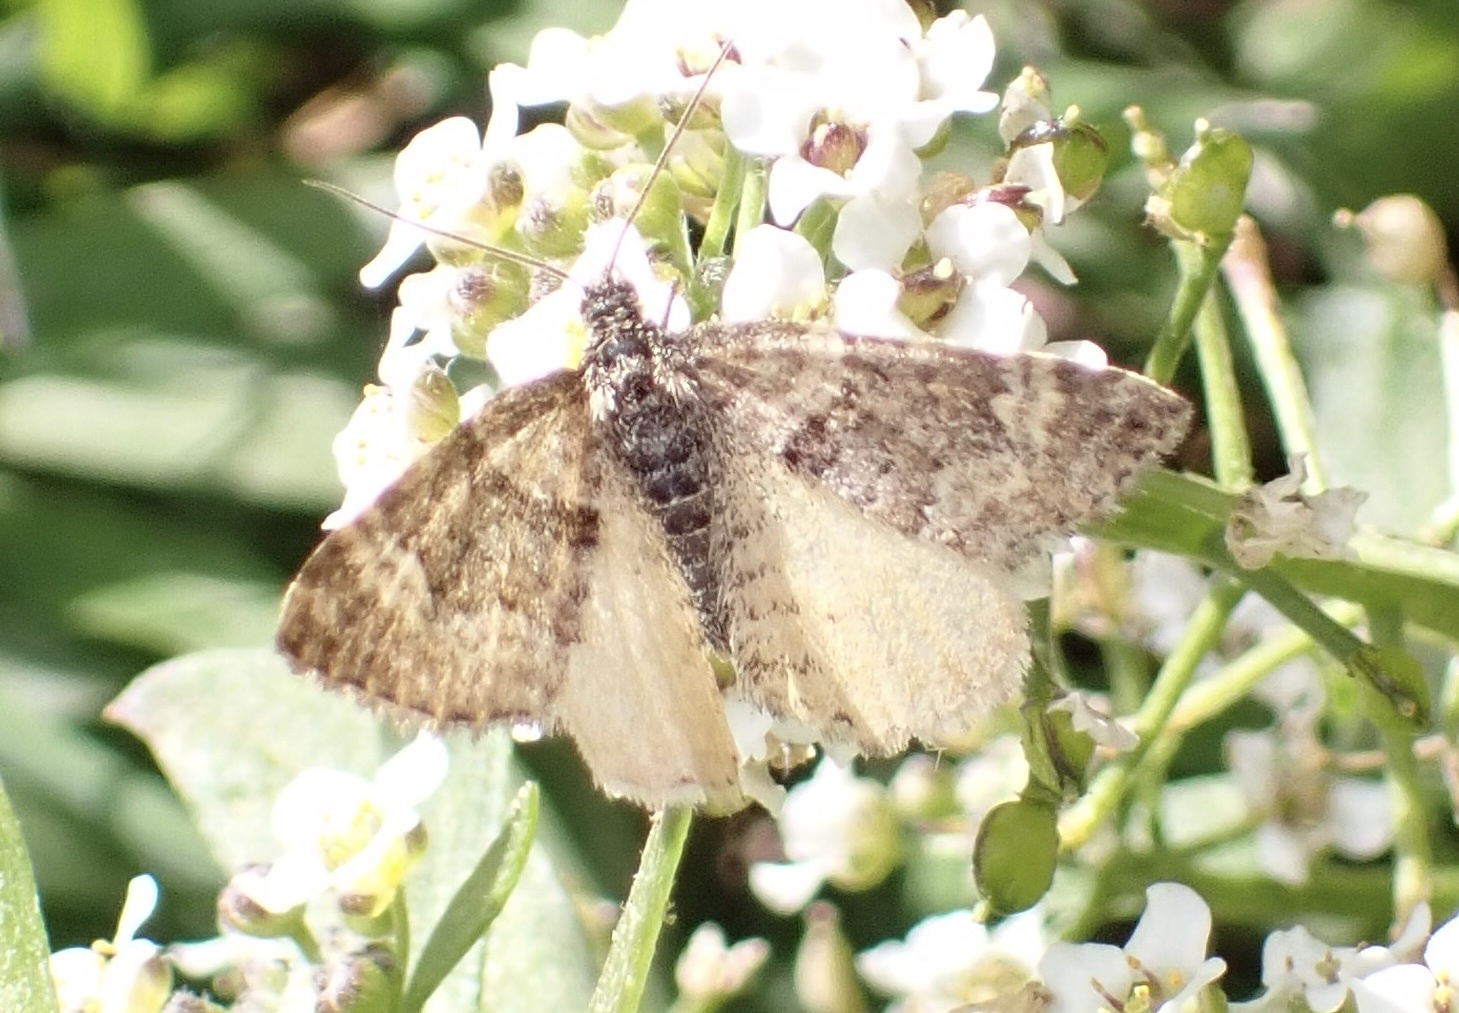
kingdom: Animalia
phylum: Arthropoda
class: Insecta
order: Lepidoptera
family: Geometridae
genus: Epirrhoe
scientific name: Epirrhoe plebeculata
